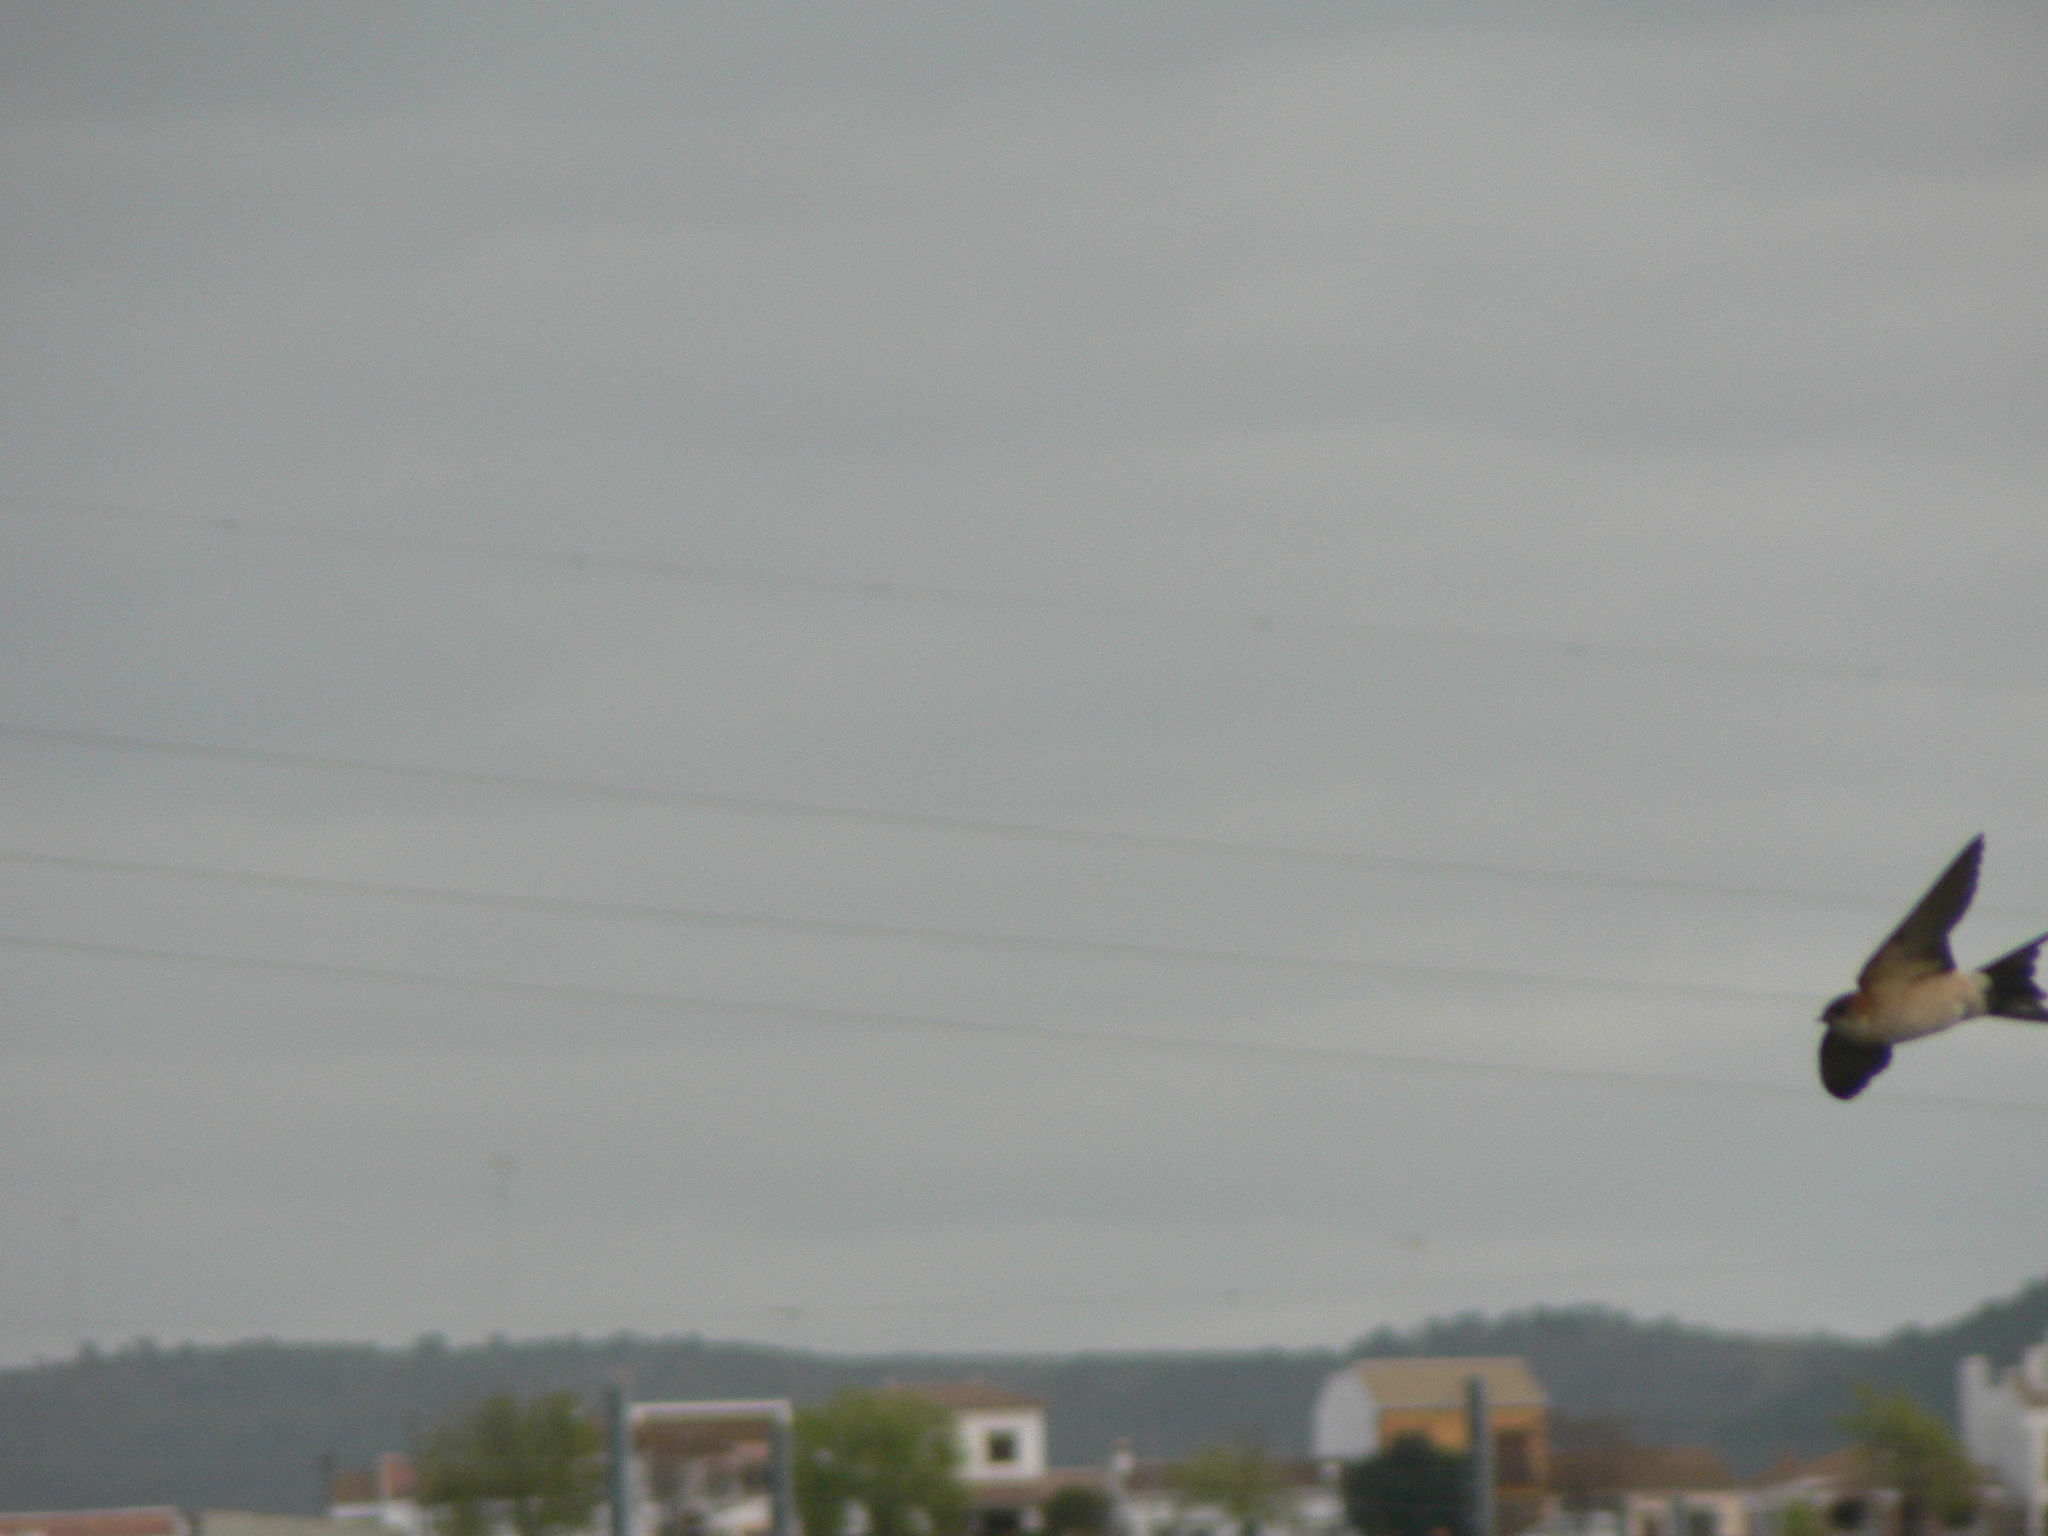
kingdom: Animalia
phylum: Chordata
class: Aves
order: Passeriformes
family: Hirundinidae
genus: Cecropis
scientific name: Cecropis daurica
